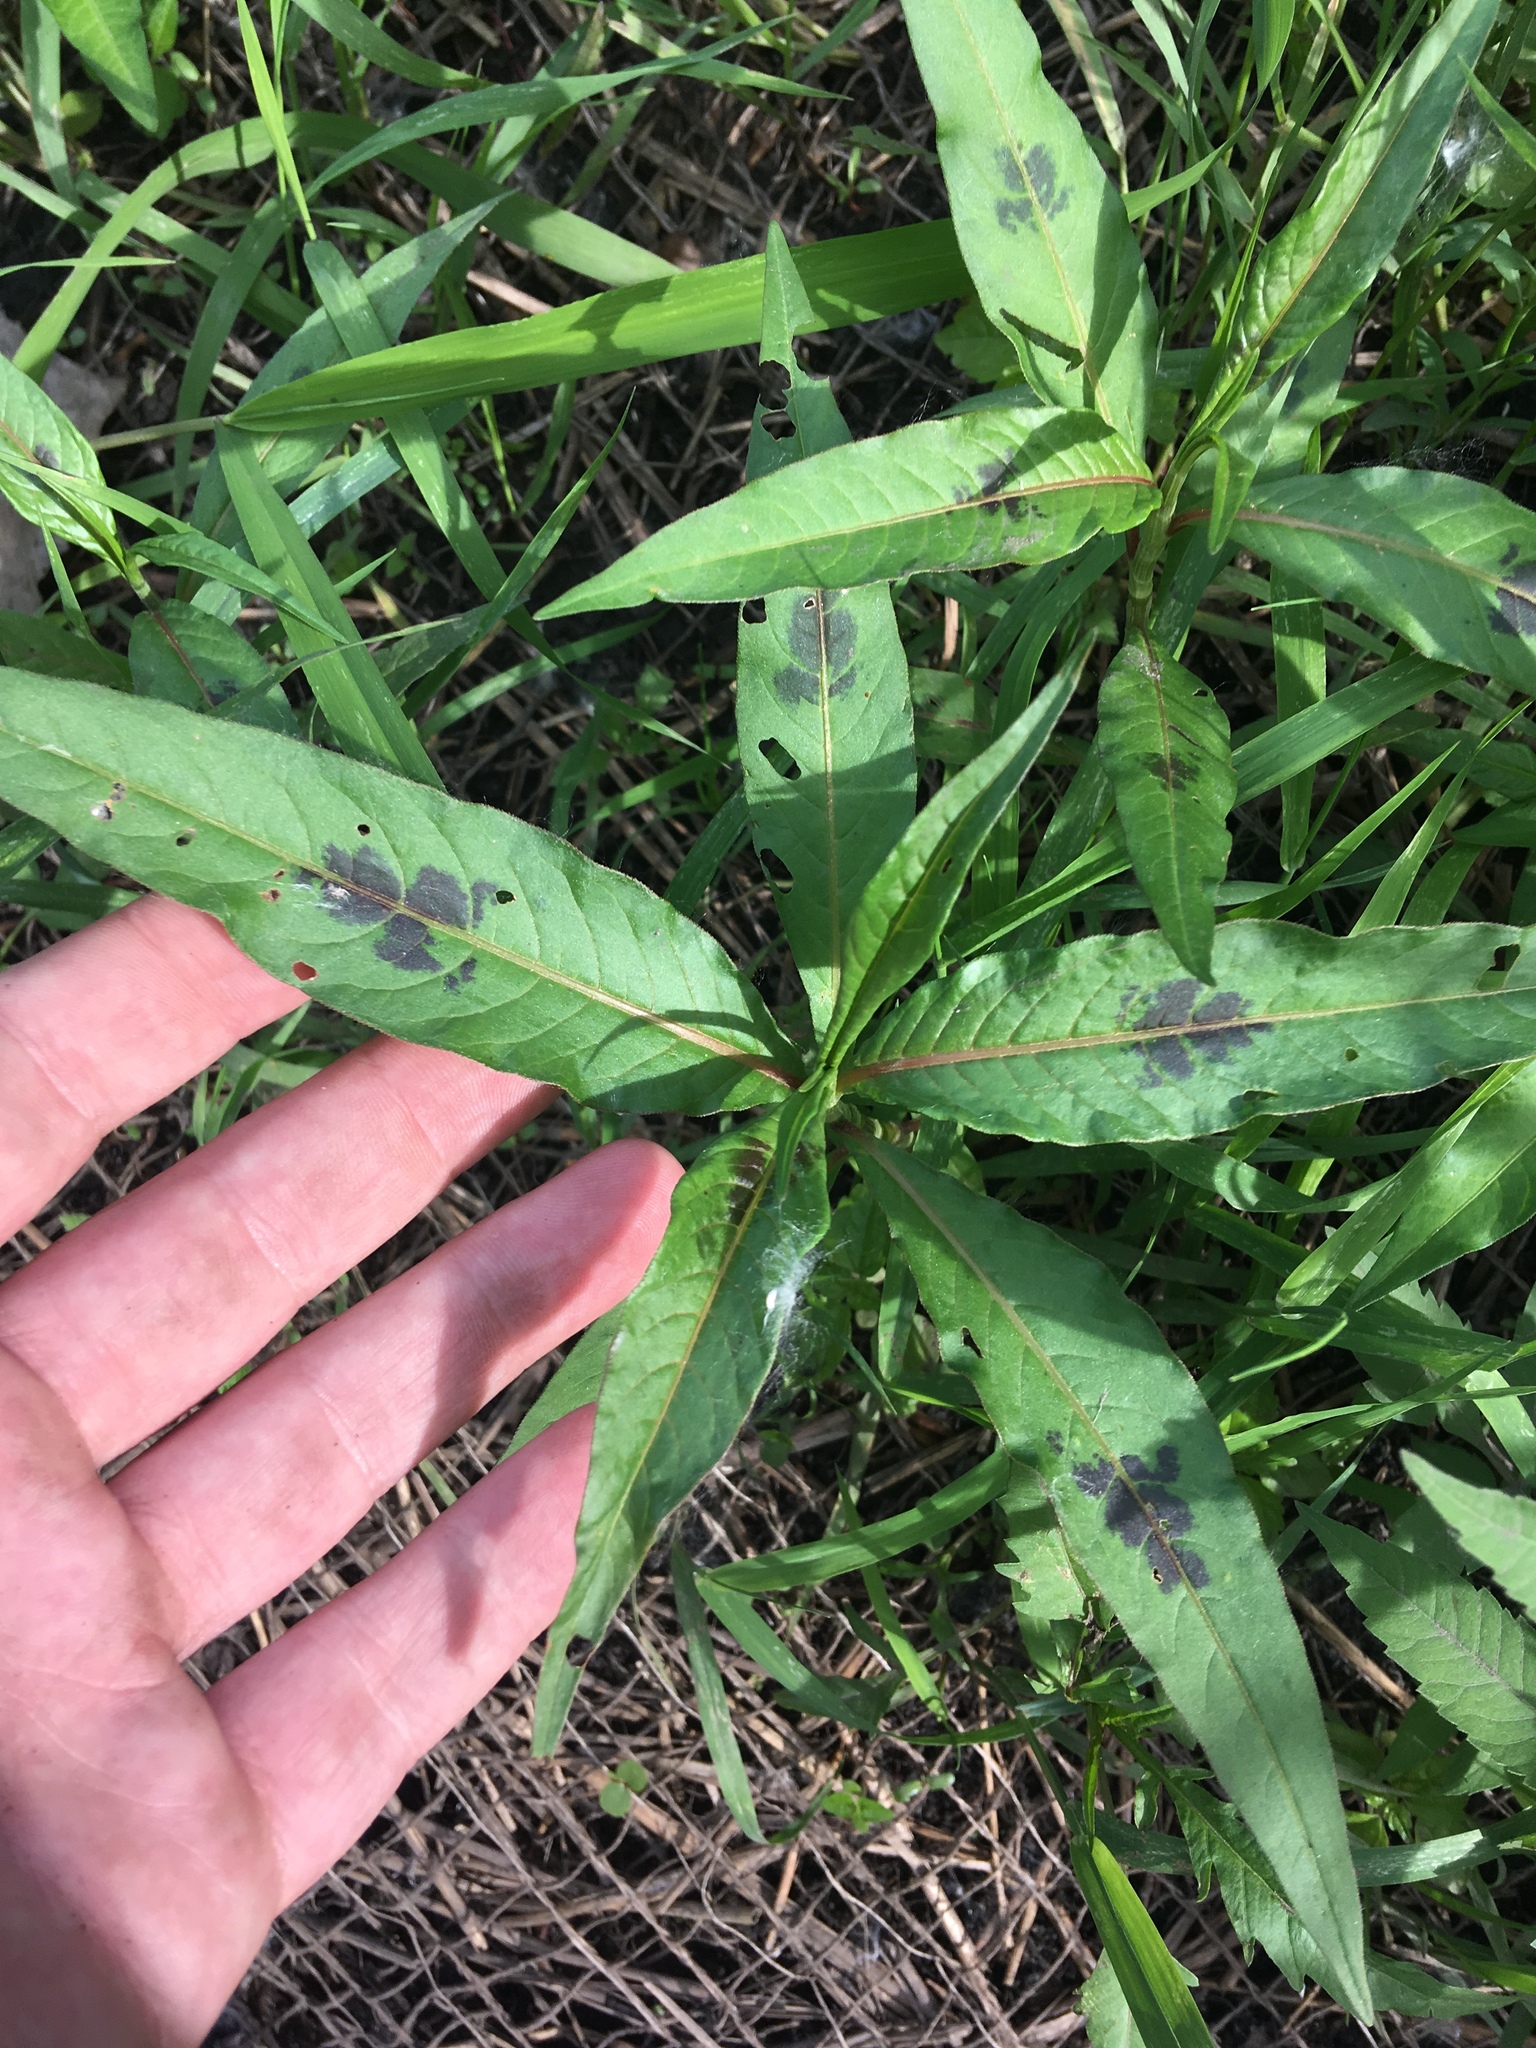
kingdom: Plantae
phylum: Tracheophyta
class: Magnoliopsida
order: Caryophyllales
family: Polygonaceae
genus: Persicaria
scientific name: Persicaria maculosa
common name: Redshank
